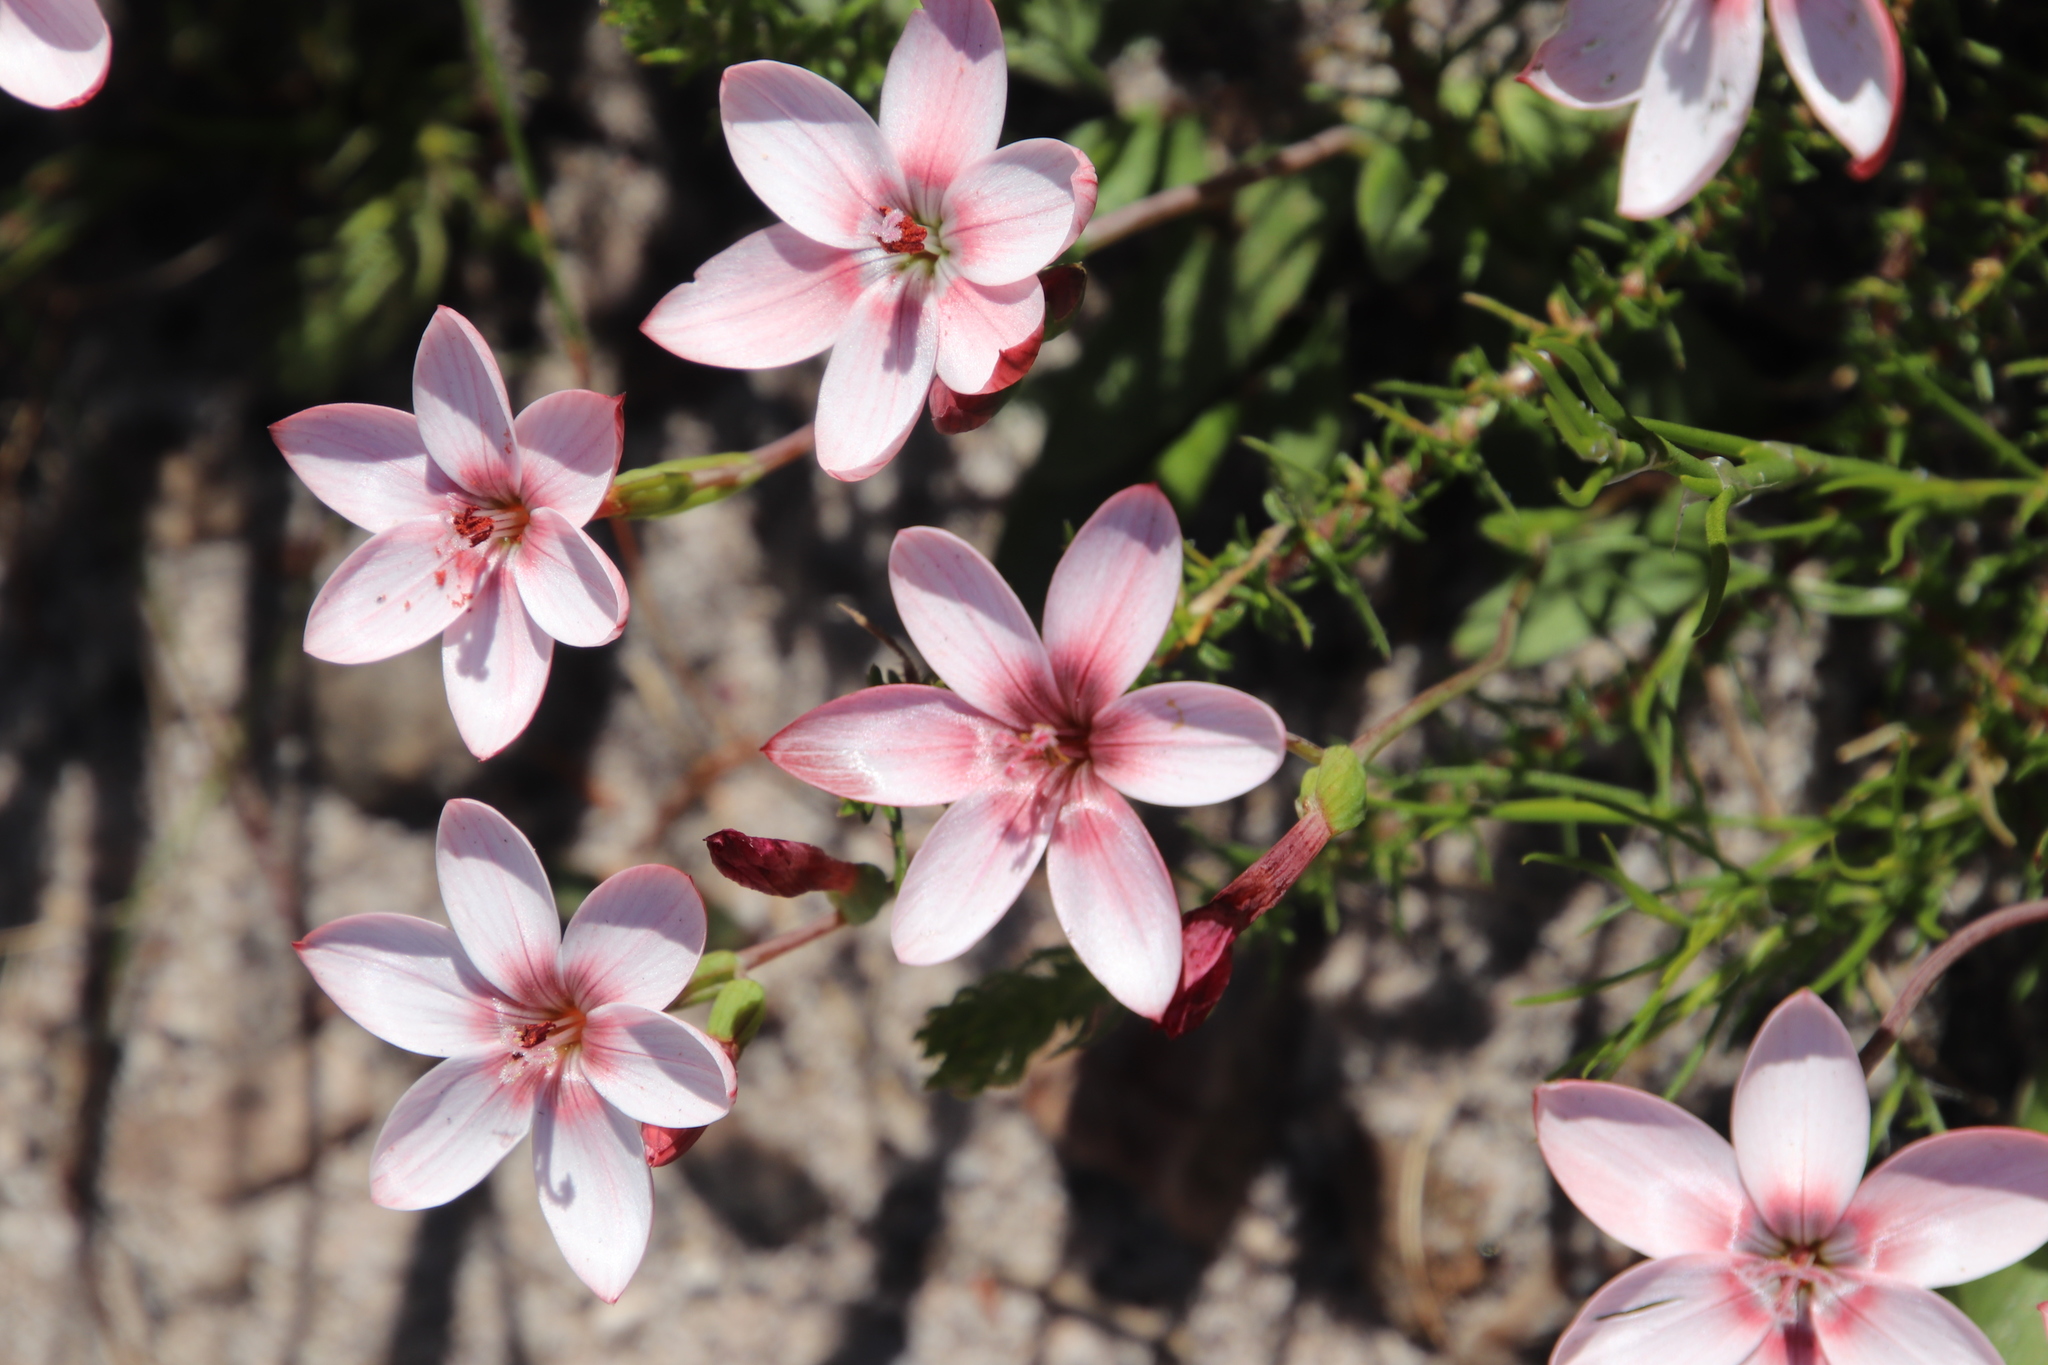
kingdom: Plantae
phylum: Tracheophyta
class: Liliopsida
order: Asparagales
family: Iridaceae
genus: Geissorhiza
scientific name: Geissorhiza ovata
